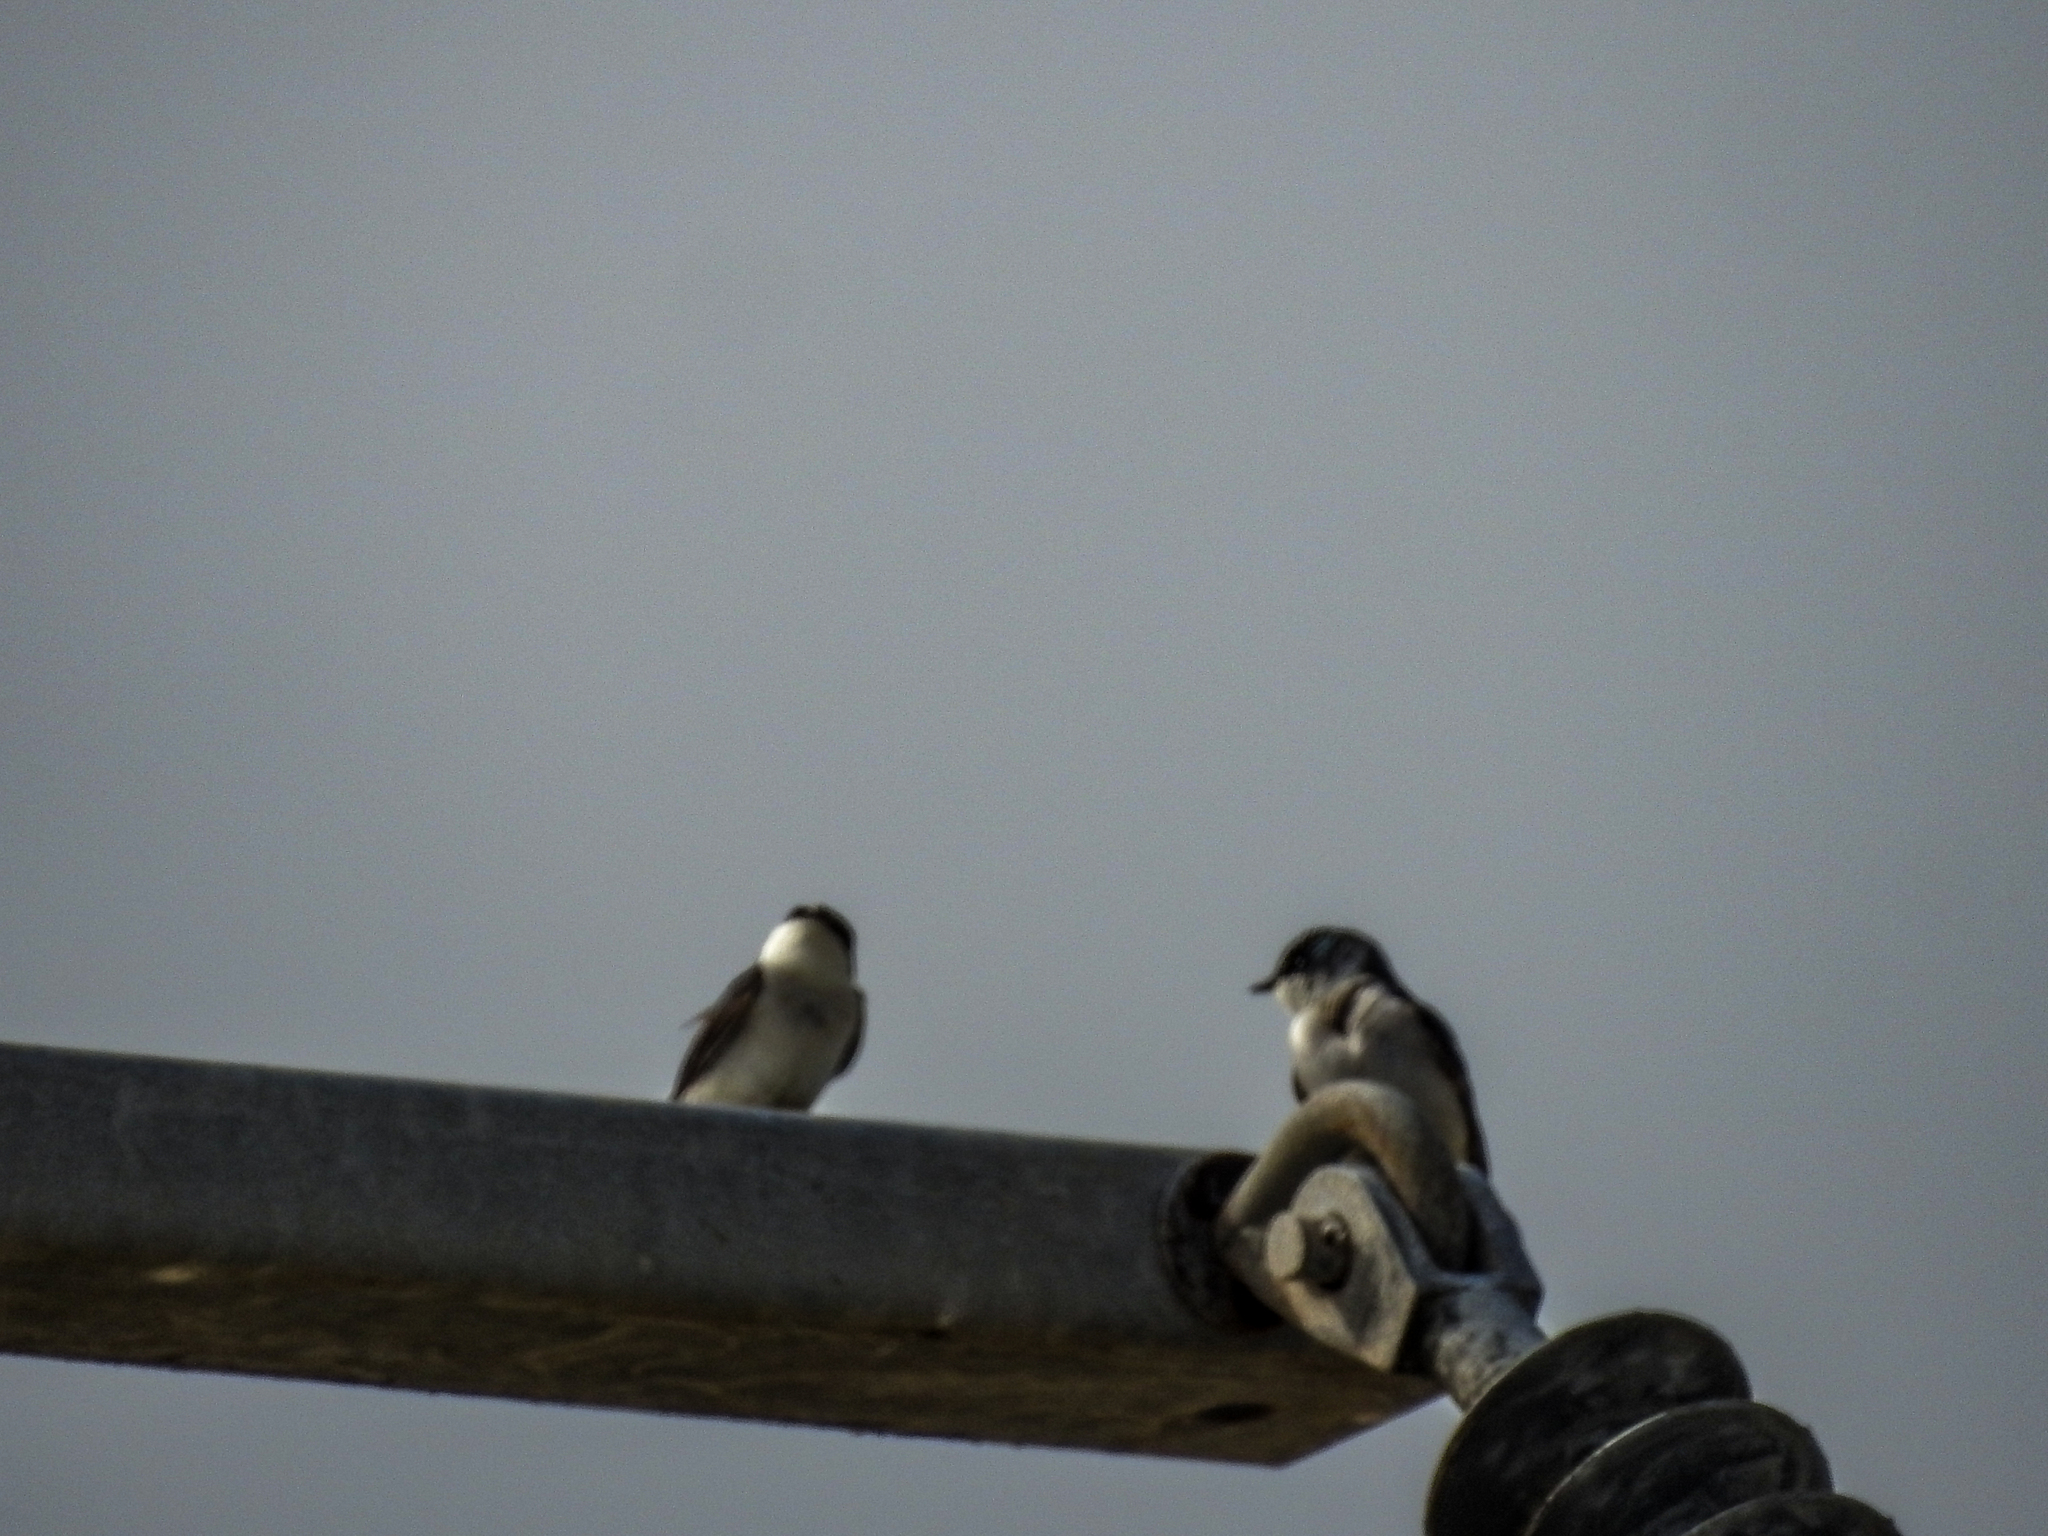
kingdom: Animalia
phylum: Chordata
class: Aves
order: Passeriformes
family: Hirundinidae
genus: Tachycineta
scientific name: Tachycineta bicolor
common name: Tree swallow
